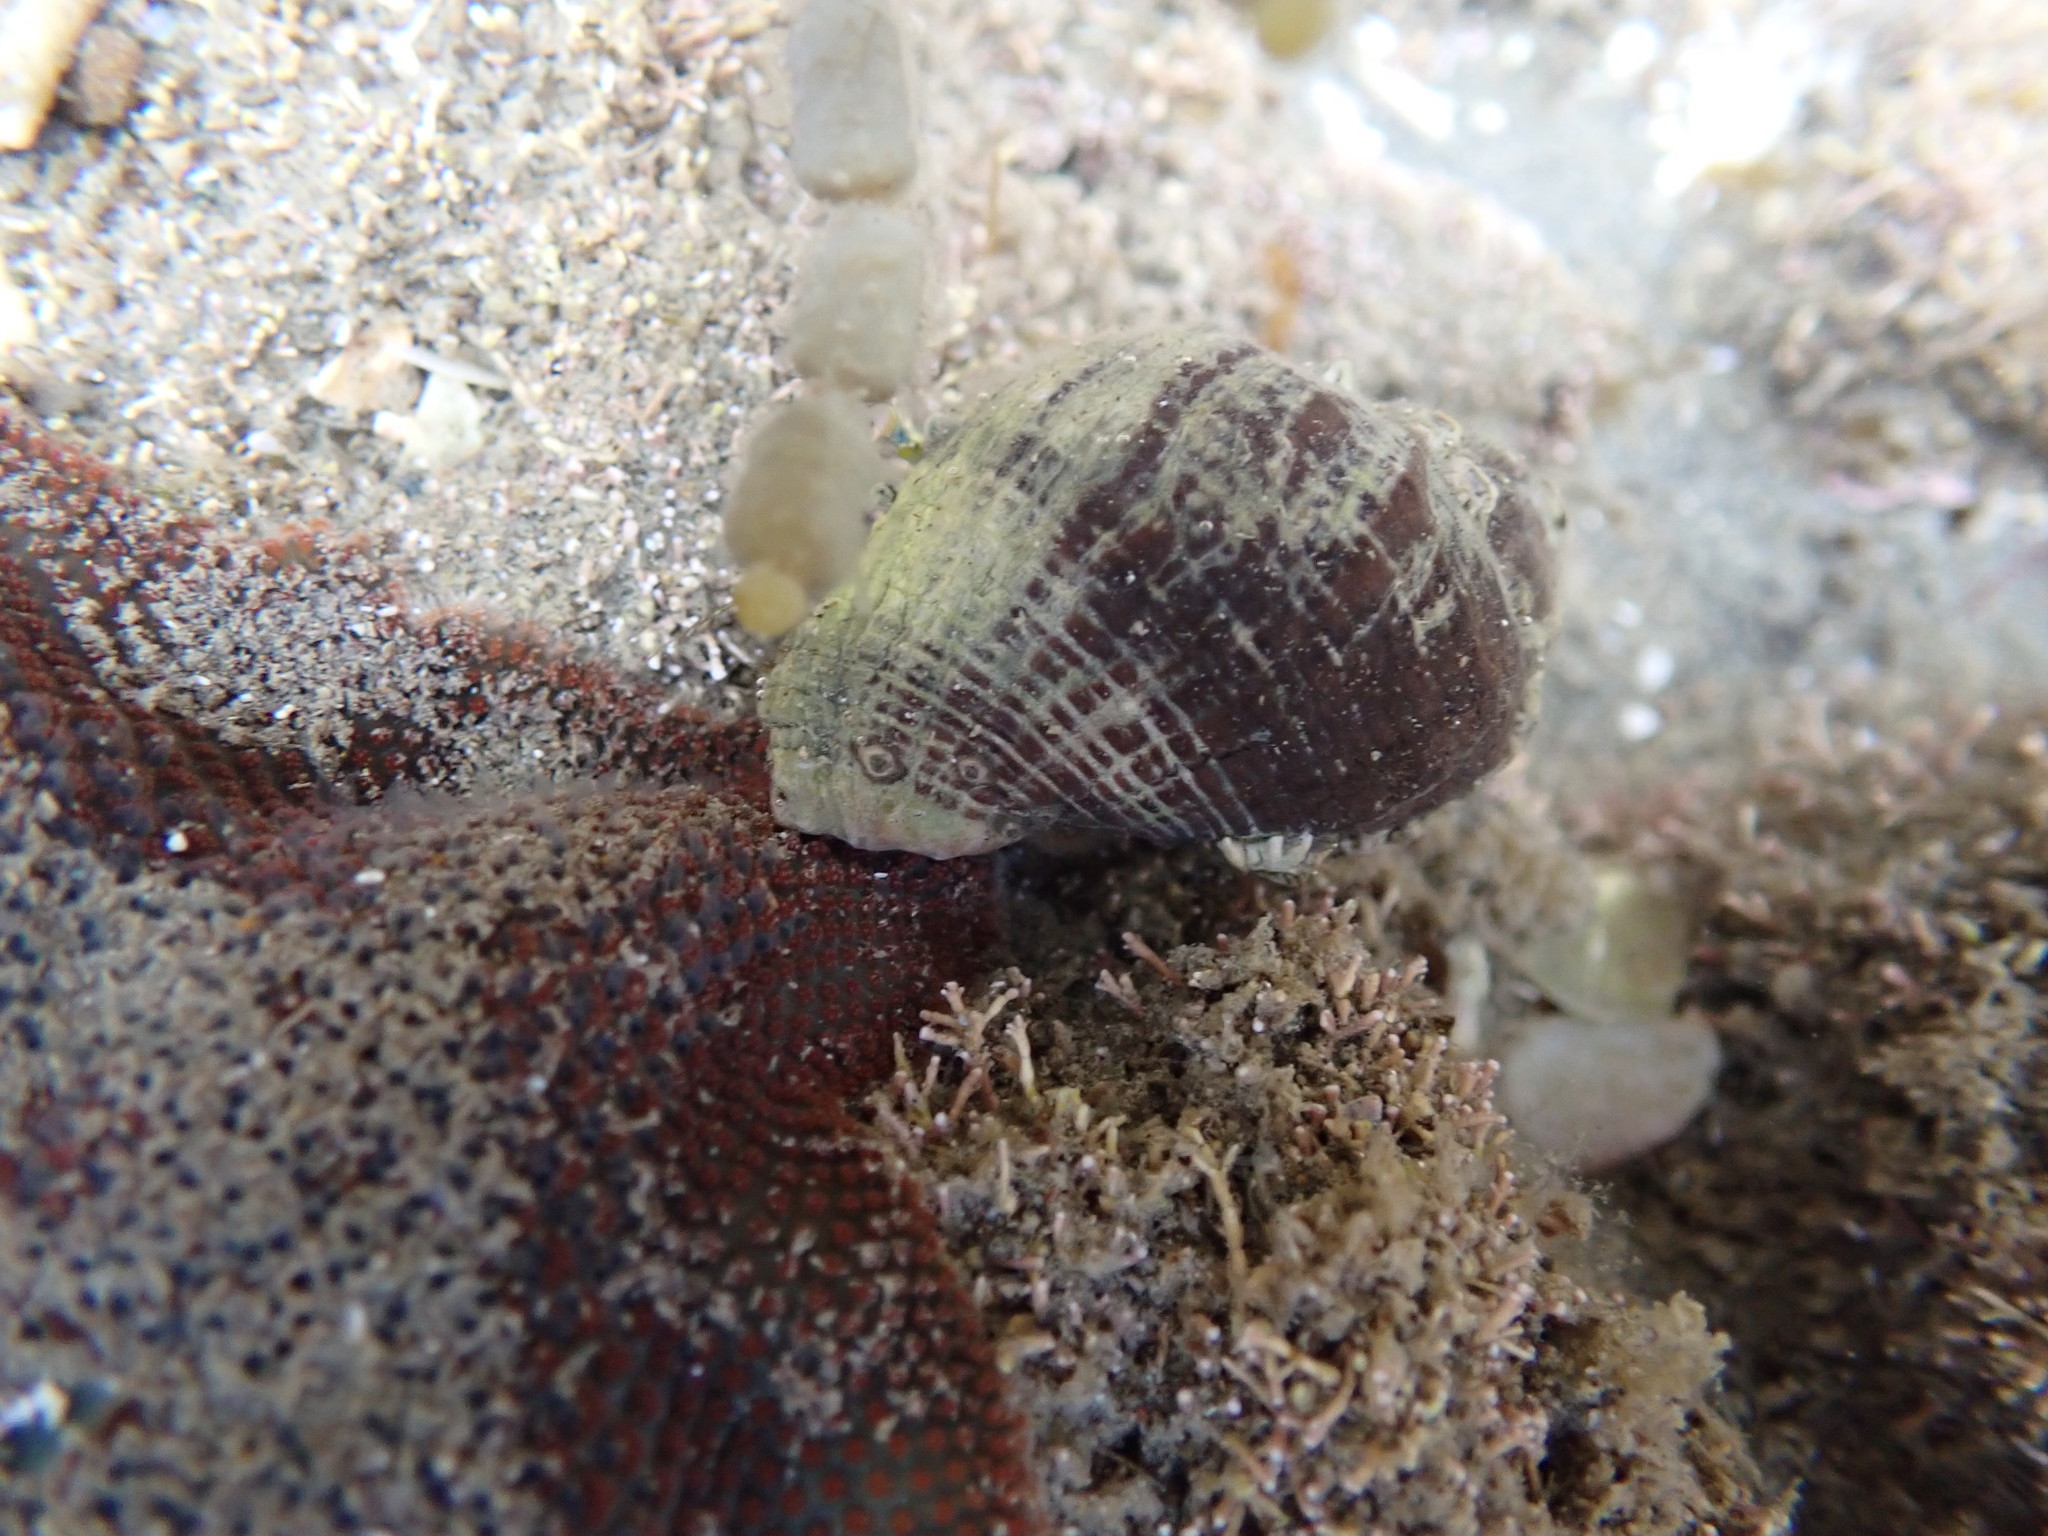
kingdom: Animalia
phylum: Mollusca
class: Gastropoda
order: Neogastropoda
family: Muricidae
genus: Haustrum
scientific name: Haustrum haustorium
